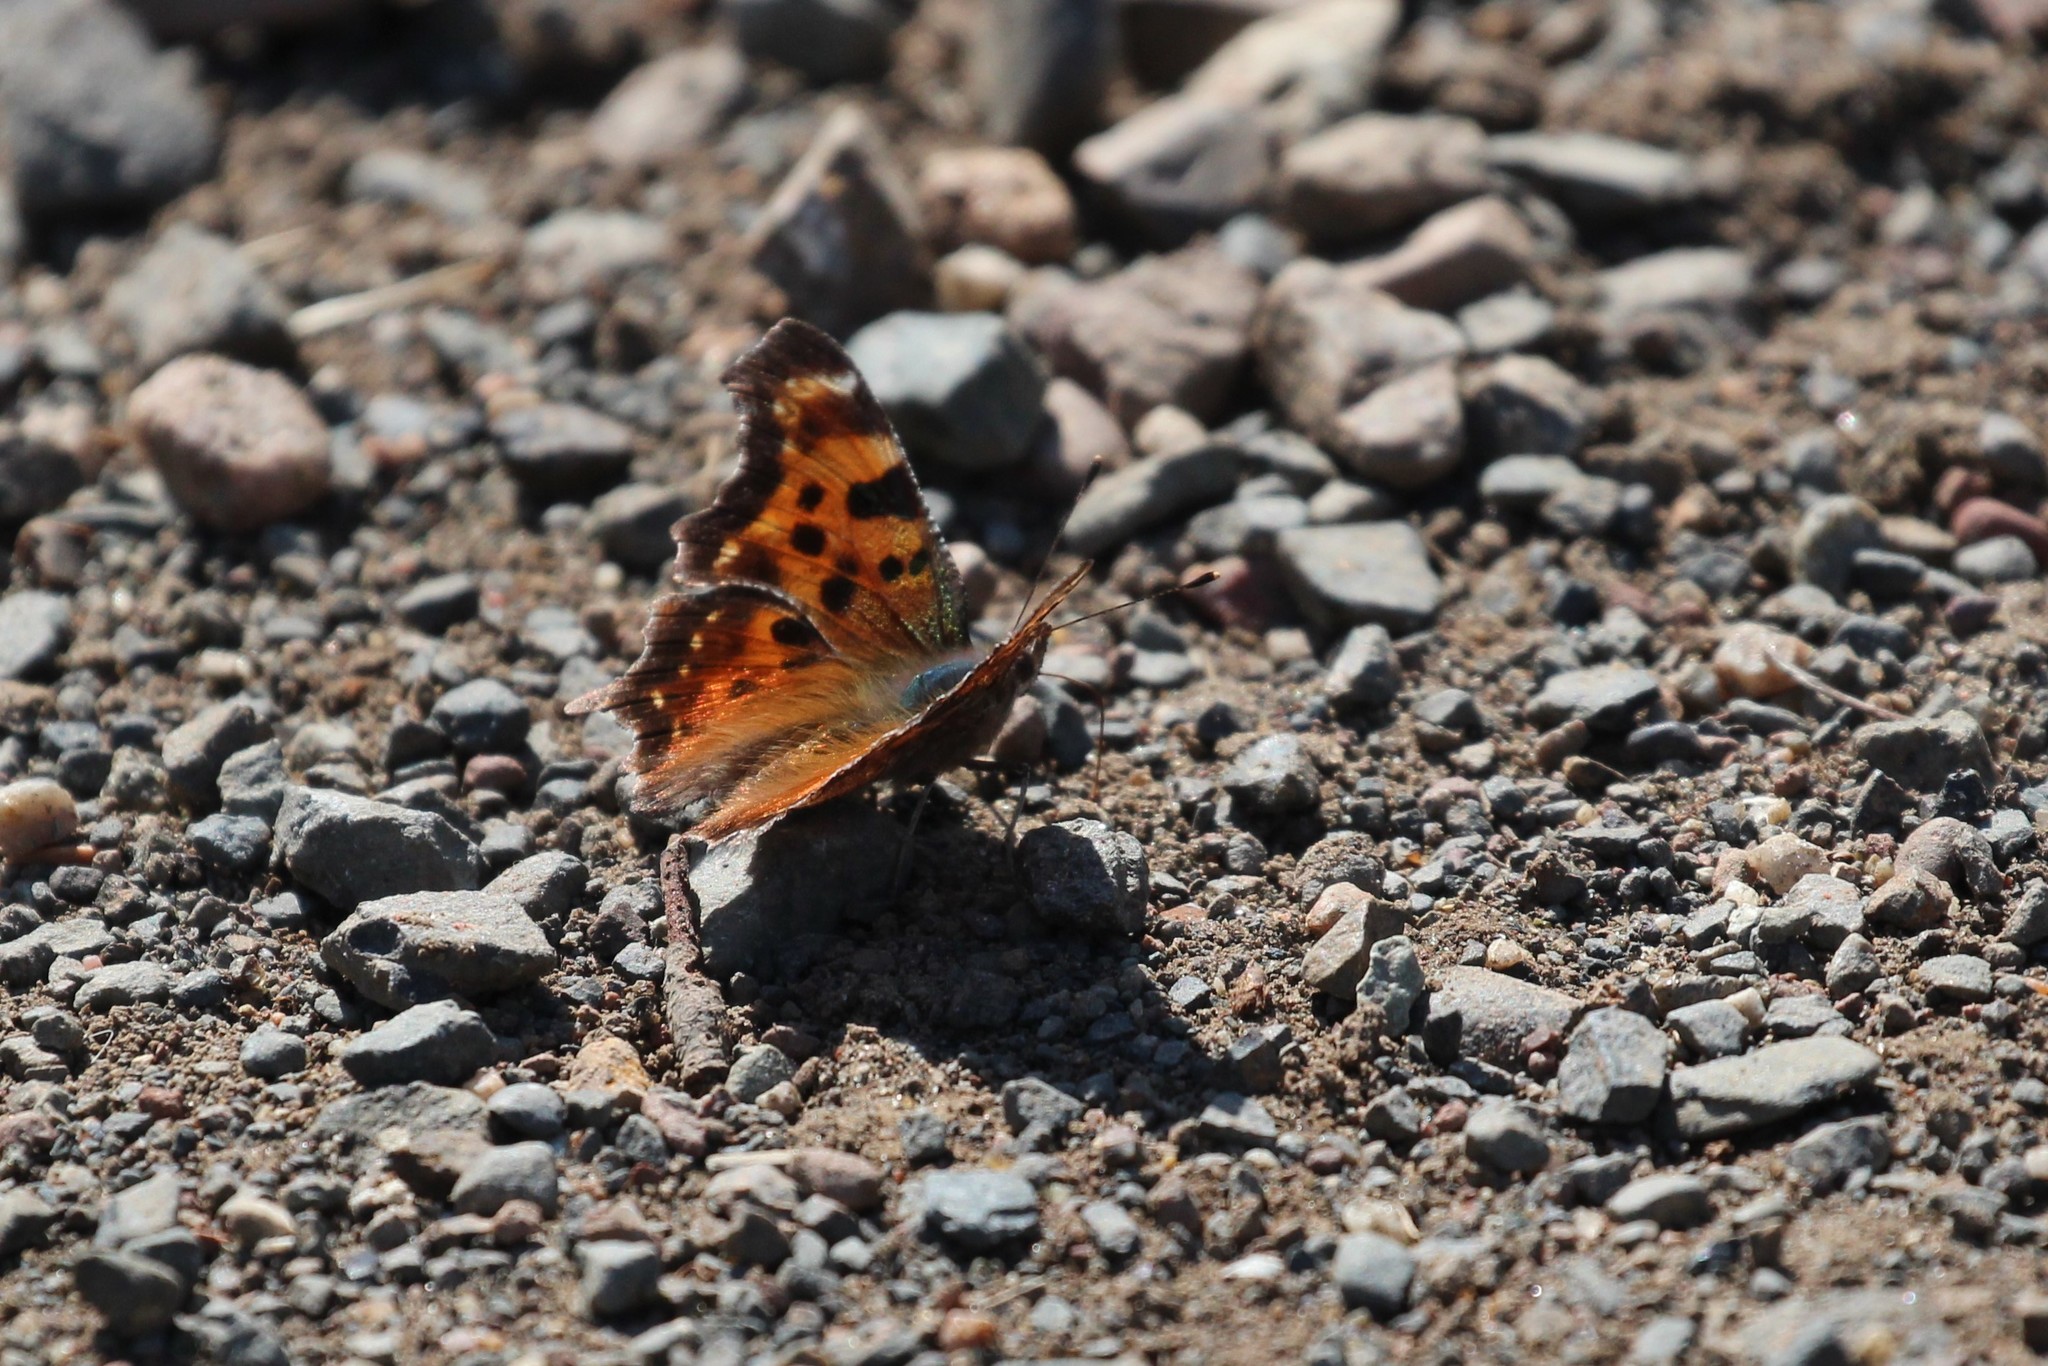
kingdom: Animalia
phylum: Arthropoda
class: Insecta
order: Lepidoptera
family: Nymphalidae
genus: Polygonia
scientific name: Polygonia faunus
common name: Green comma
